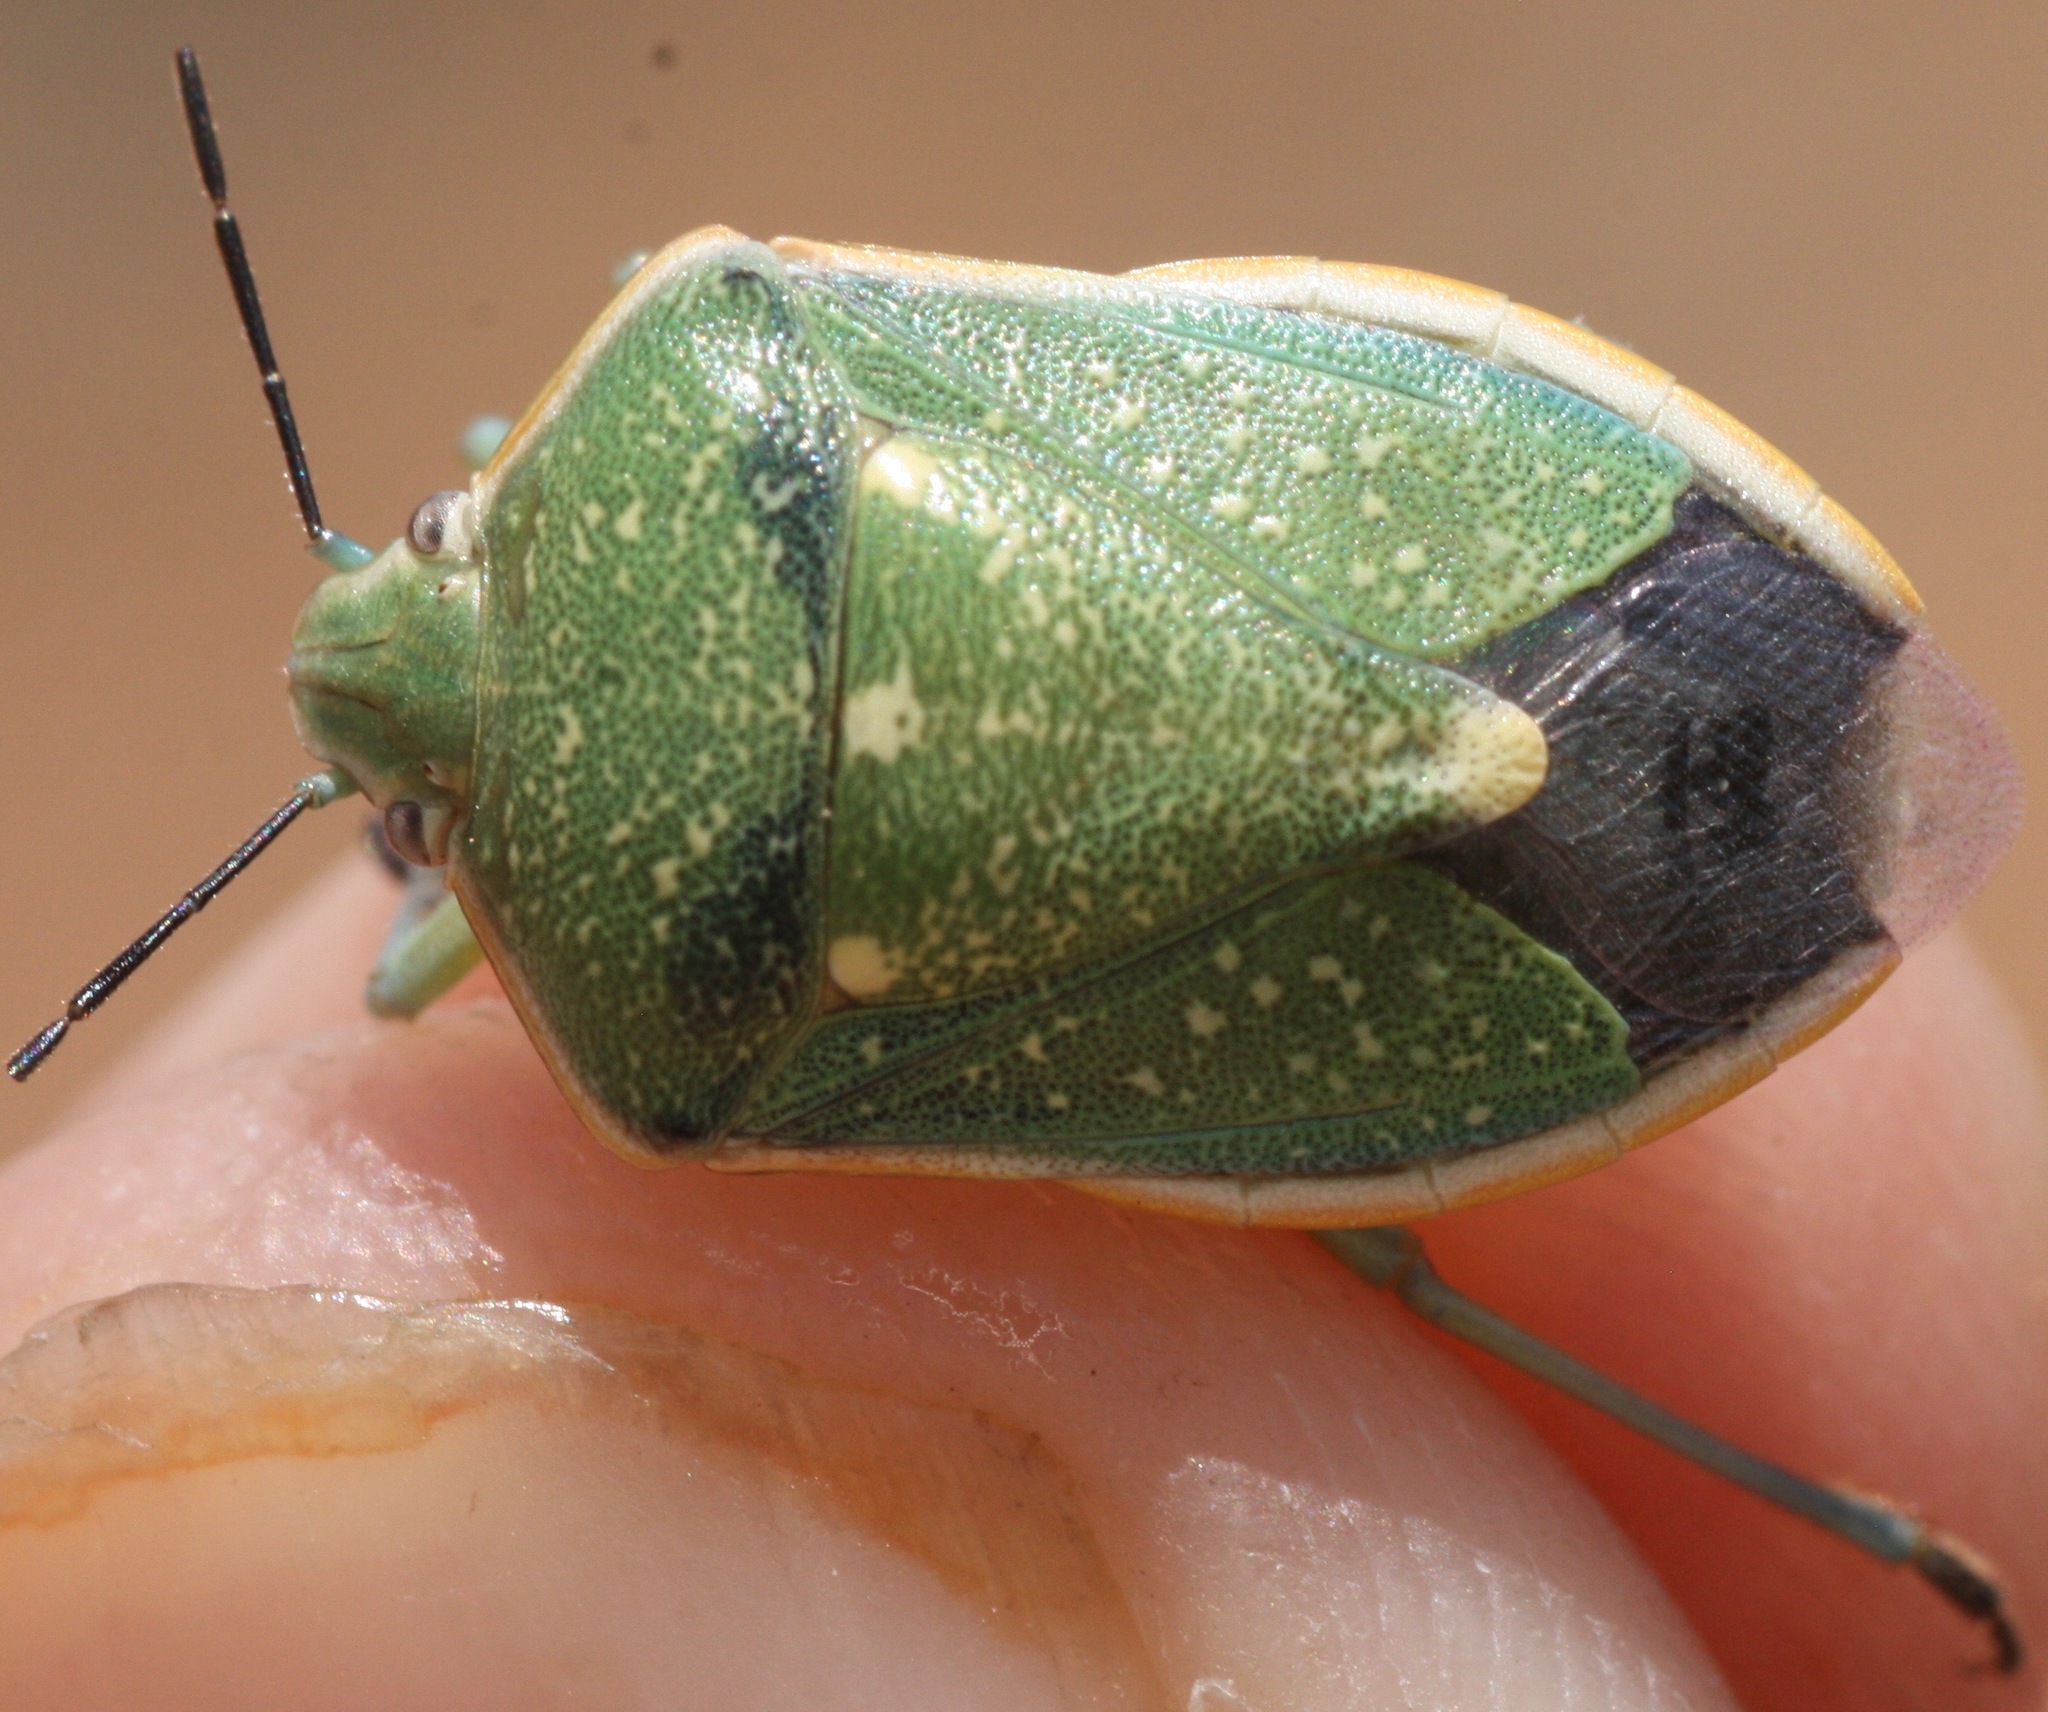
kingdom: Animalia
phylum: Arthropoda
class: Insecta
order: Hemiptera
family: Pentatomidae
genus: Chlorochroa
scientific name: Chlorochroa sayi
